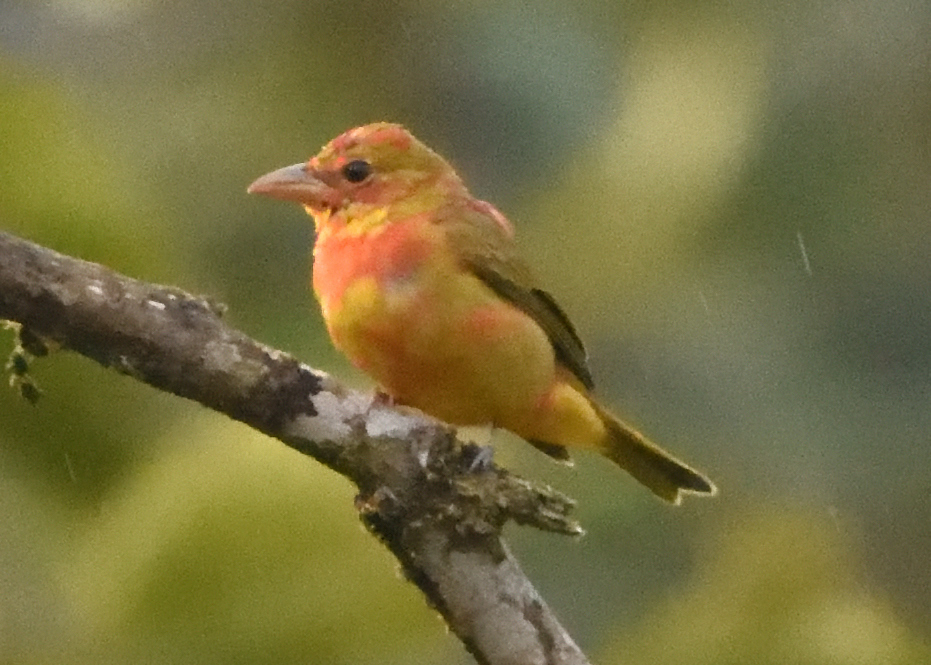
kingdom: Animalia
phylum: Chordata
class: Aves
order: Passeriformes
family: Cardinalidae
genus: Piranga
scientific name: Piranga rubra
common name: Summer tanager
